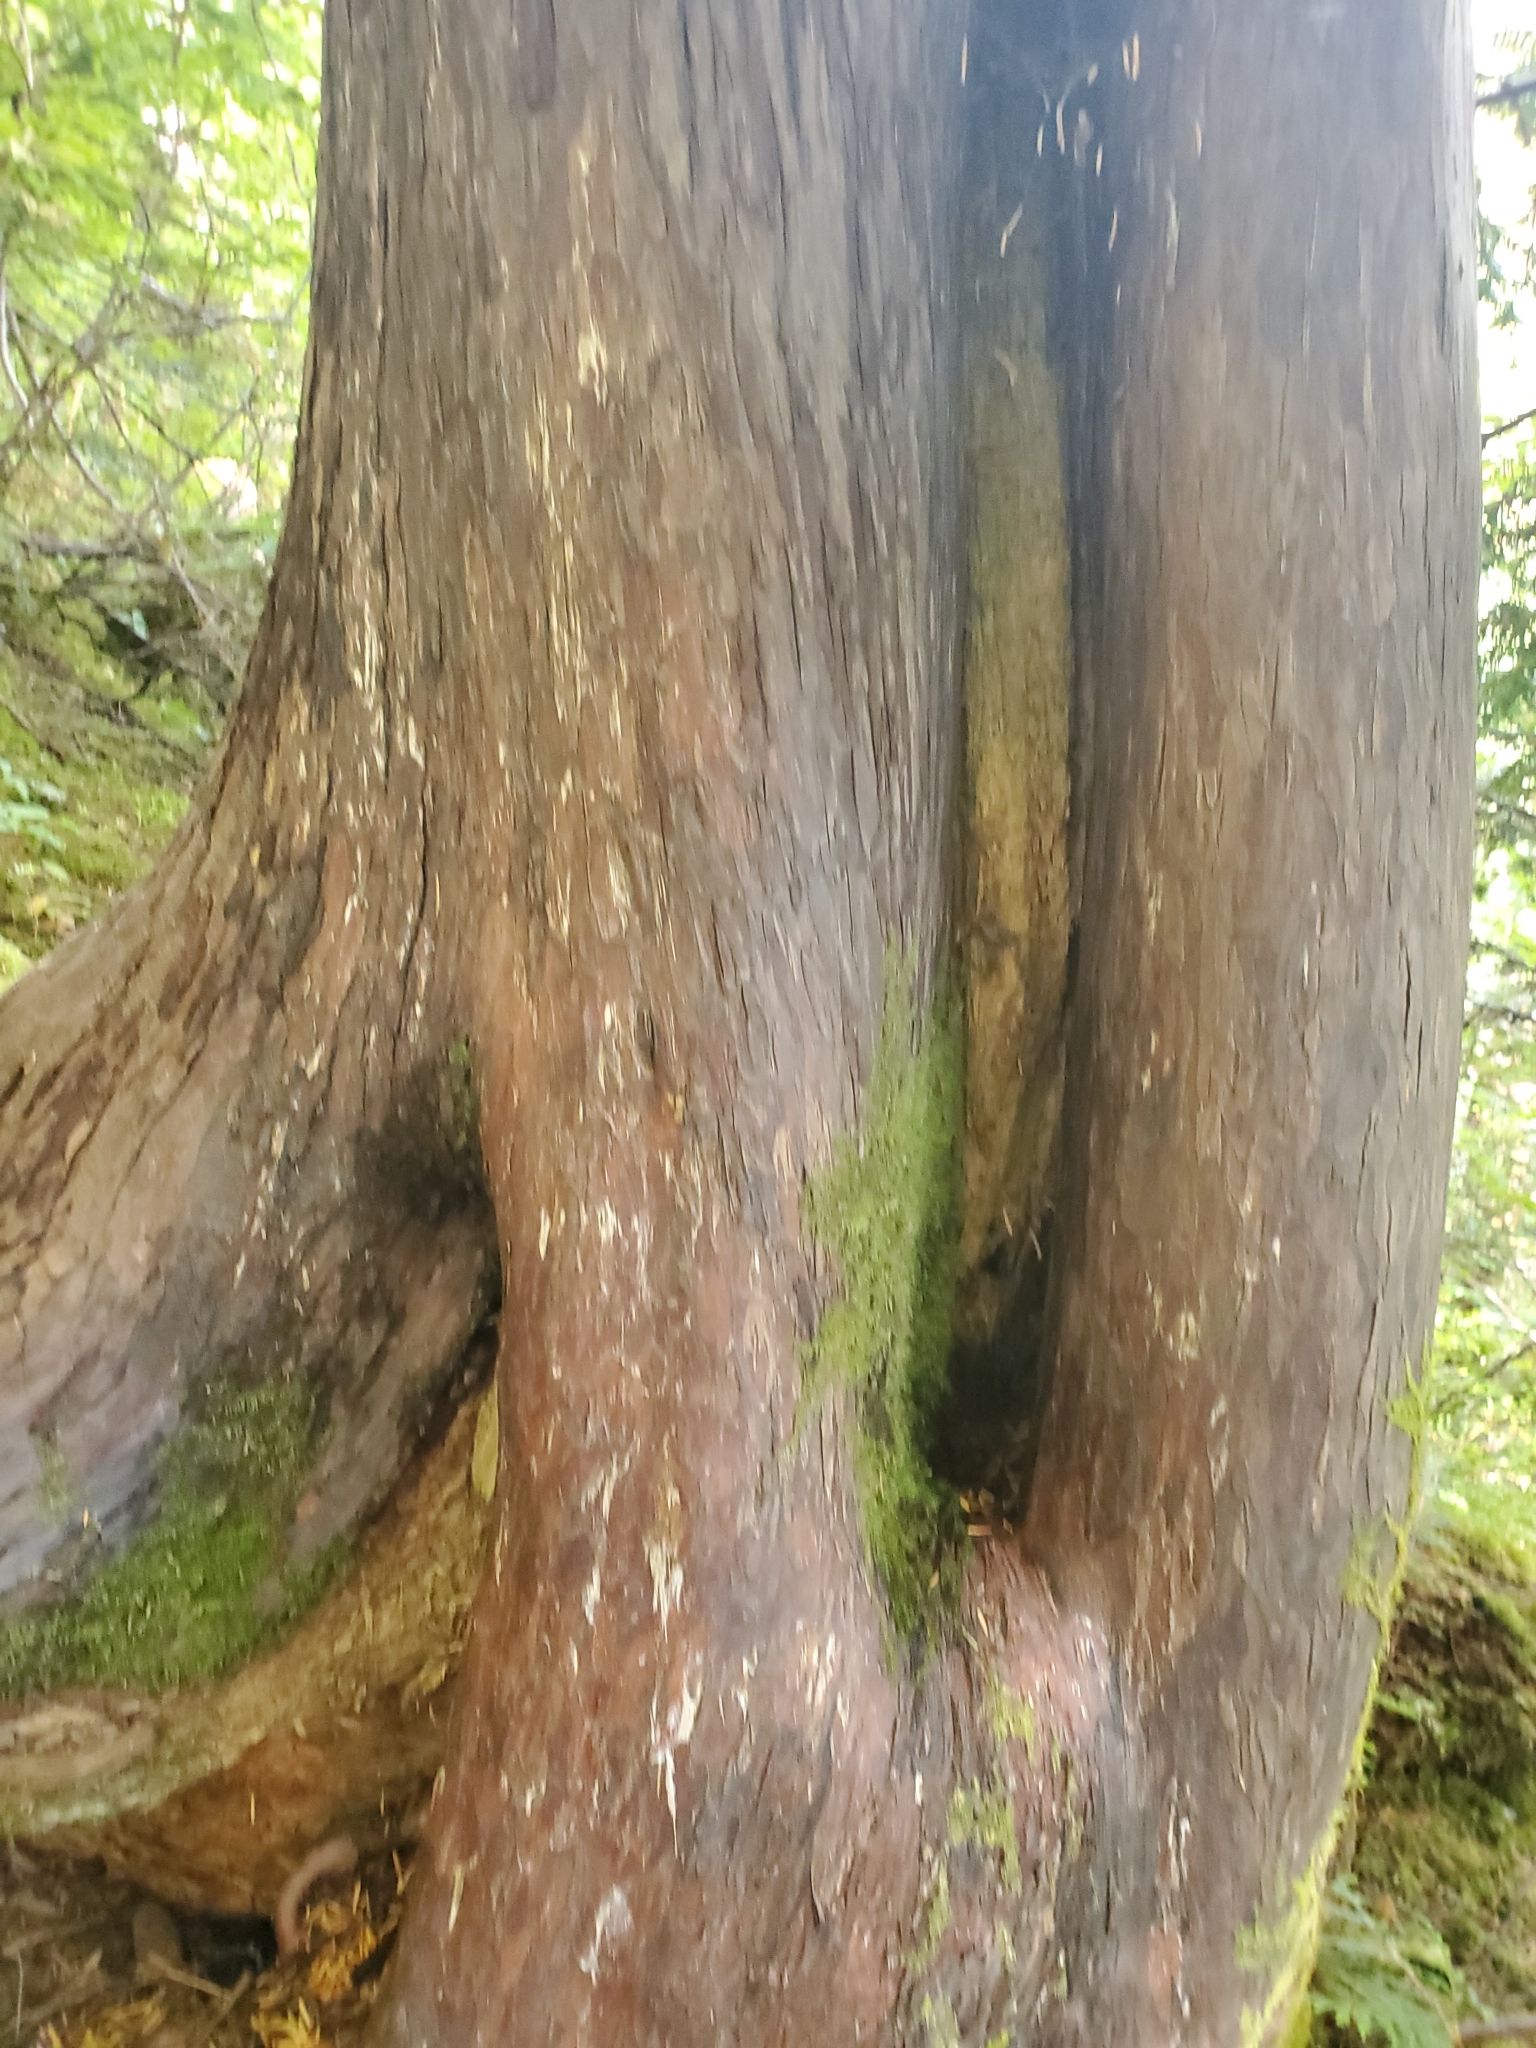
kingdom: Plantae
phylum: Tracheophyta
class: Pinopsida
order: Pinales
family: Cupressaceae
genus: Xanthocyparis
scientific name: Xanthocyparis nootkatensis
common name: Nootka cypress
